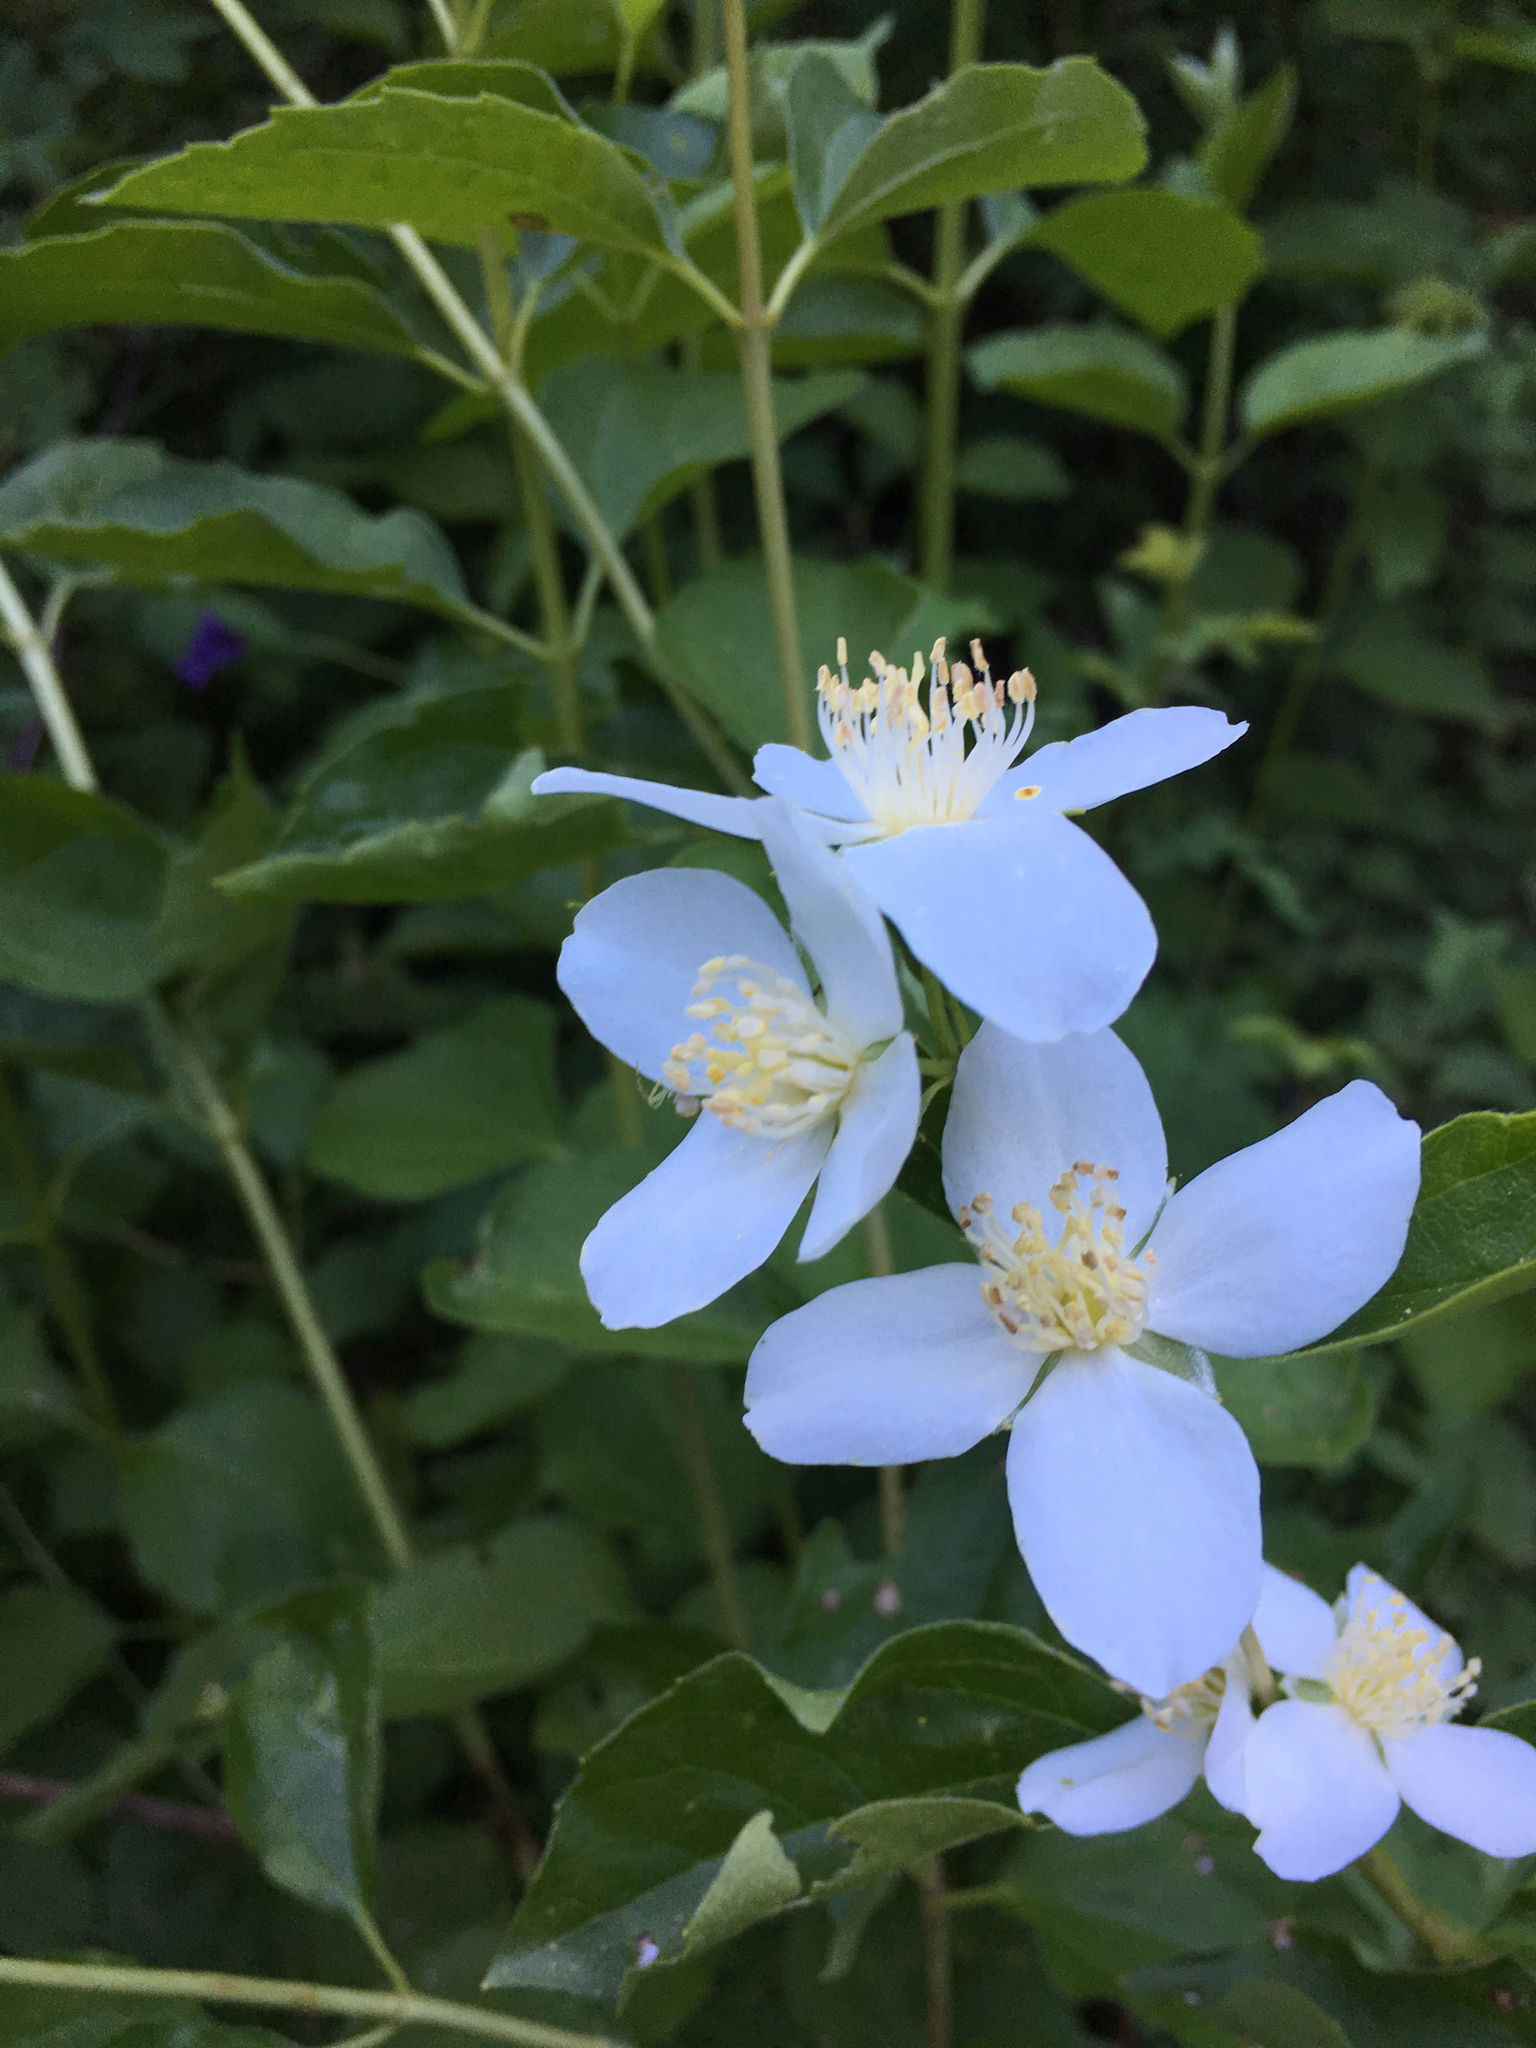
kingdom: Plantae
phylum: Tracheophyta
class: Magnoliopsida
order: Cornales
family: Hydrangeaceae
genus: Philadelphus
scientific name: Philadelphus lewisii
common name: Lewis's mock orange
